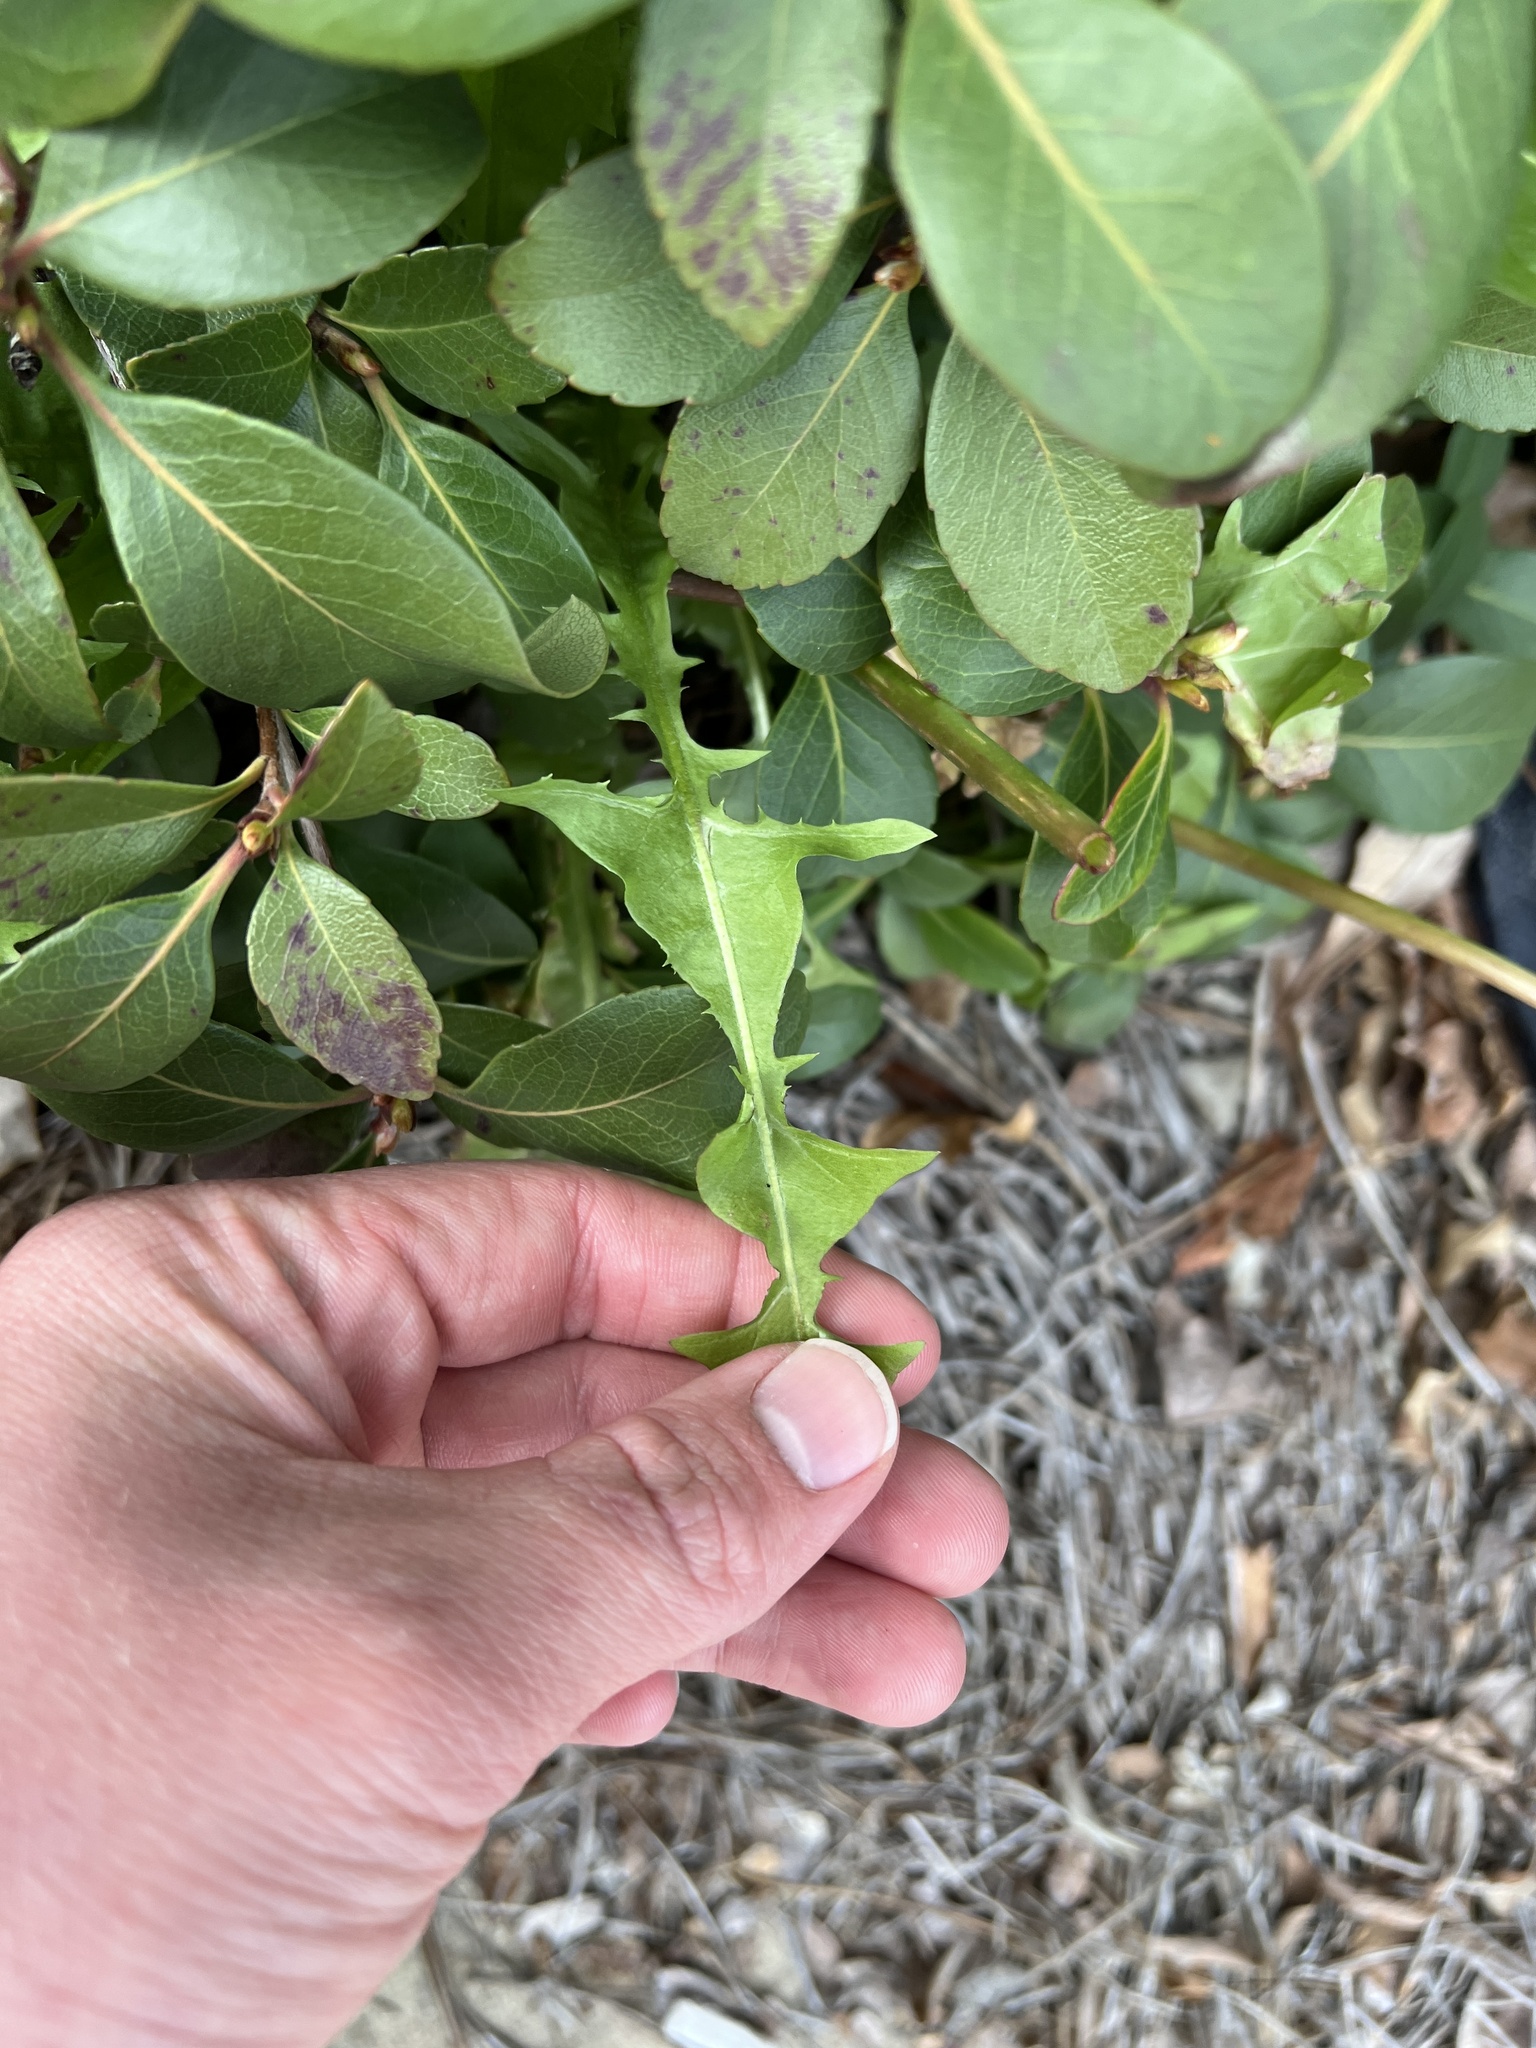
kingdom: Plantae
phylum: Tracheophyta
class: Magnoliopsida
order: Asterales
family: Asteraceae
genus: Taraxacum
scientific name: Taraxacum
